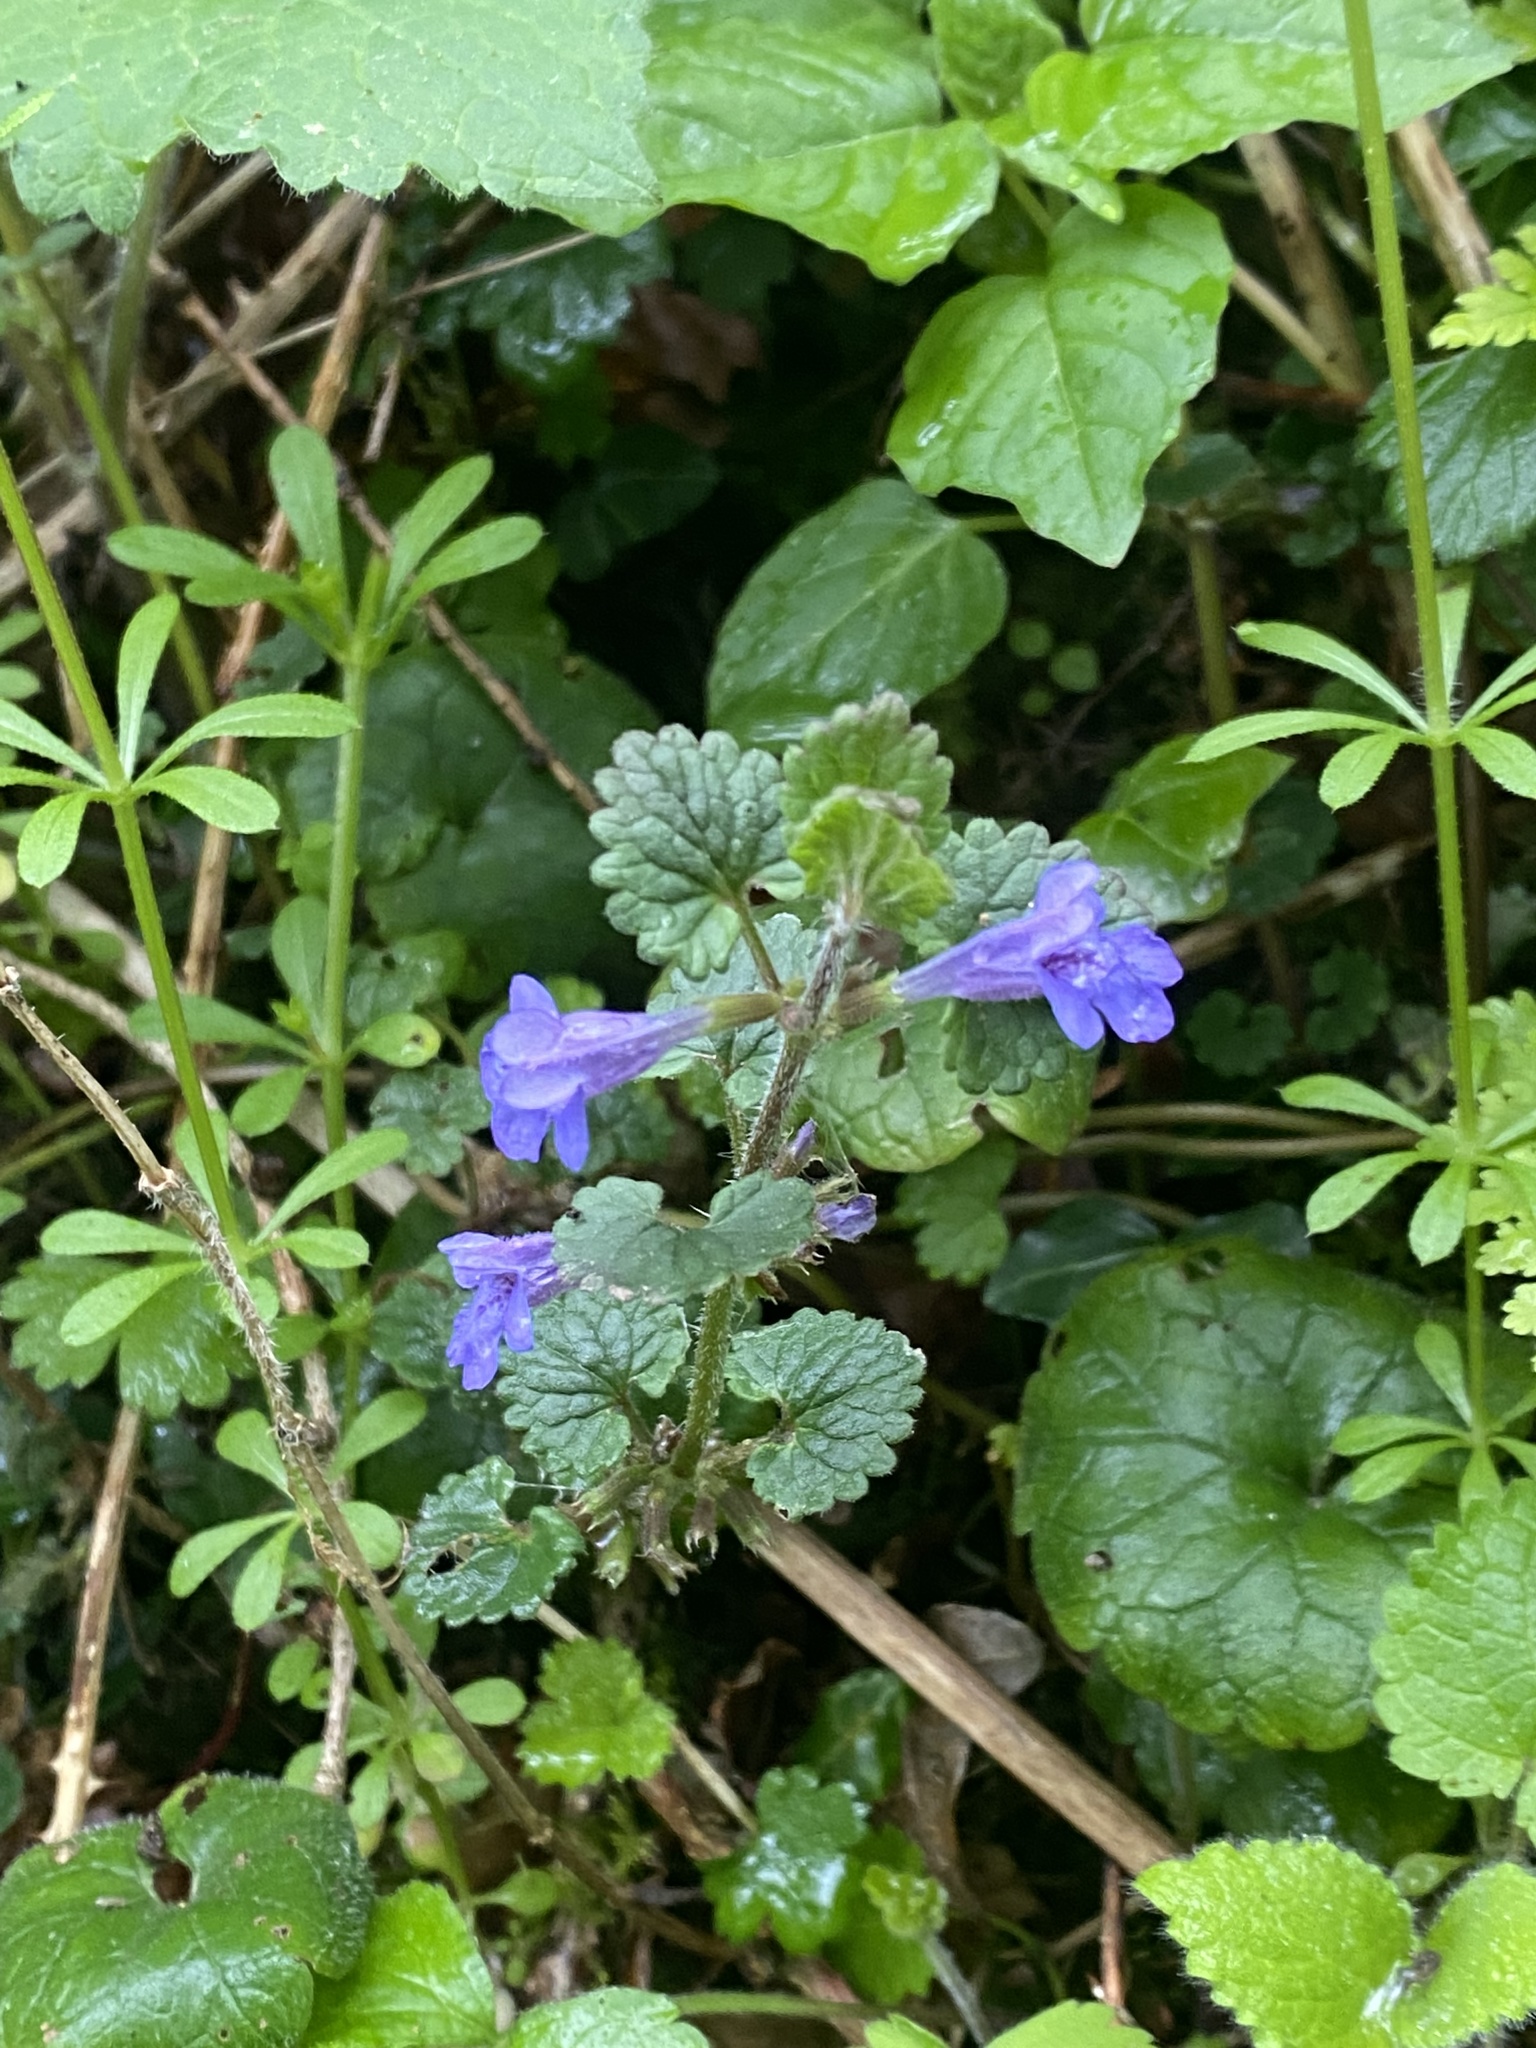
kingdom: Plantae
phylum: Tracheophyta
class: Magnoliopsida
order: Lamiales
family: Lamiaceae
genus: Glechoma
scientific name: Glechoma hederacea
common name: Ground ivy
